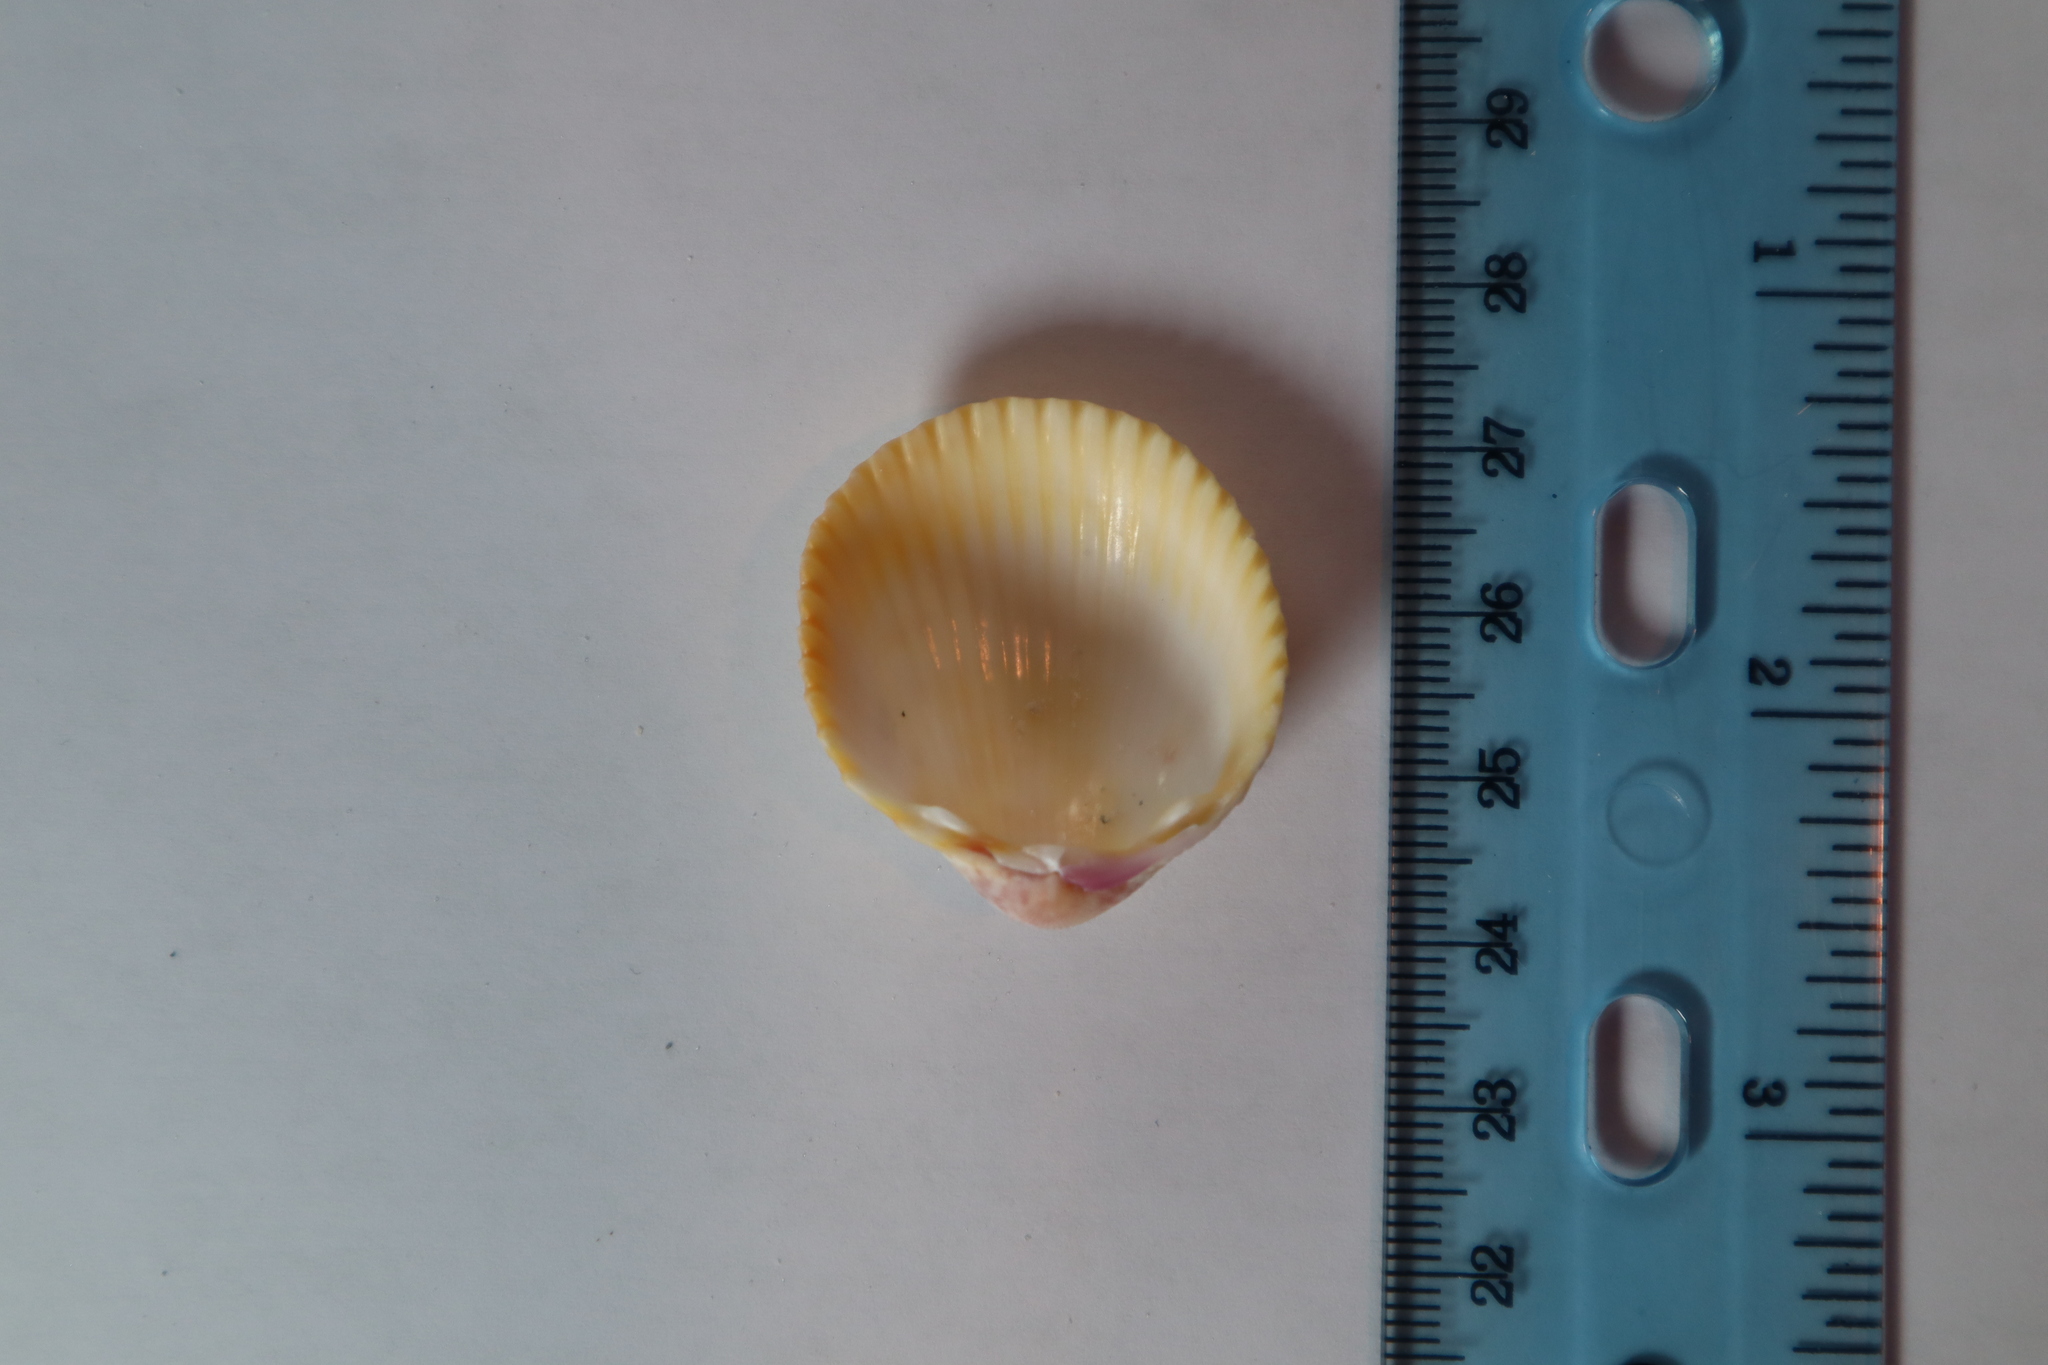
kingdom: Animalia
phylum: Mollusca
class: Bivalvia
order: Cardiida
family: Cardiidae
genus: Dallocardia
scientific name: Dallocardia muricata
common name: Yellow pricklycockle
